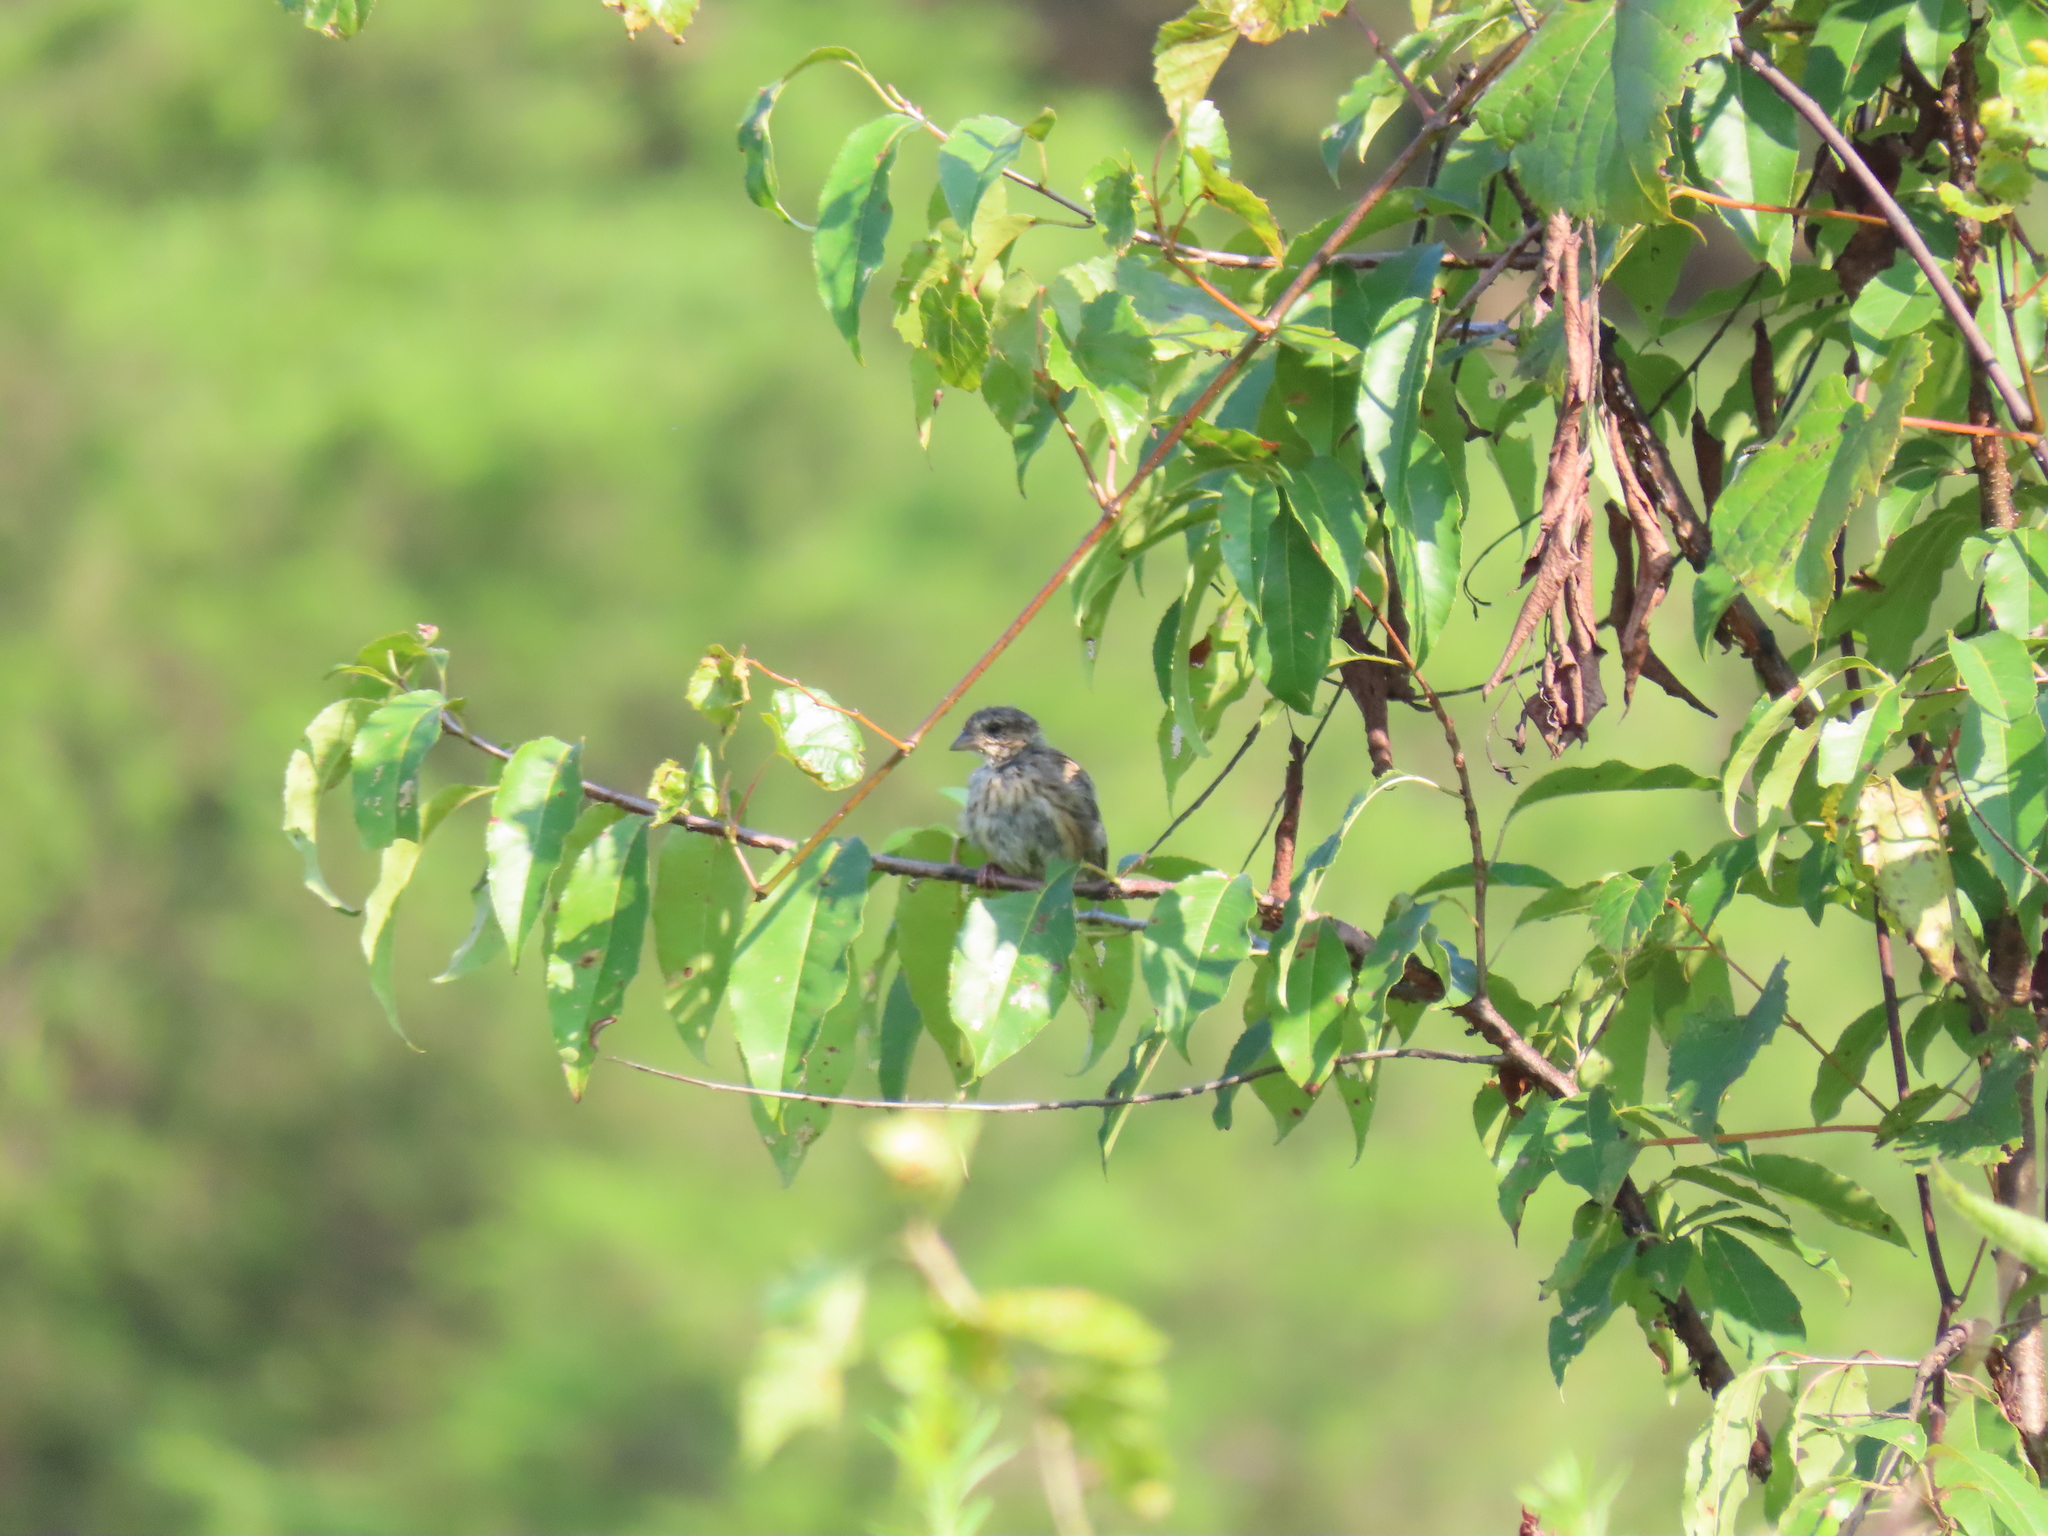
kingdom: Animalia
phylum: Chordata
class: Aves
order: Passeriformes
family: Passerellidae
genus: Spizella
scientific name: Spizella passerina
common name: Chipping sparrow
